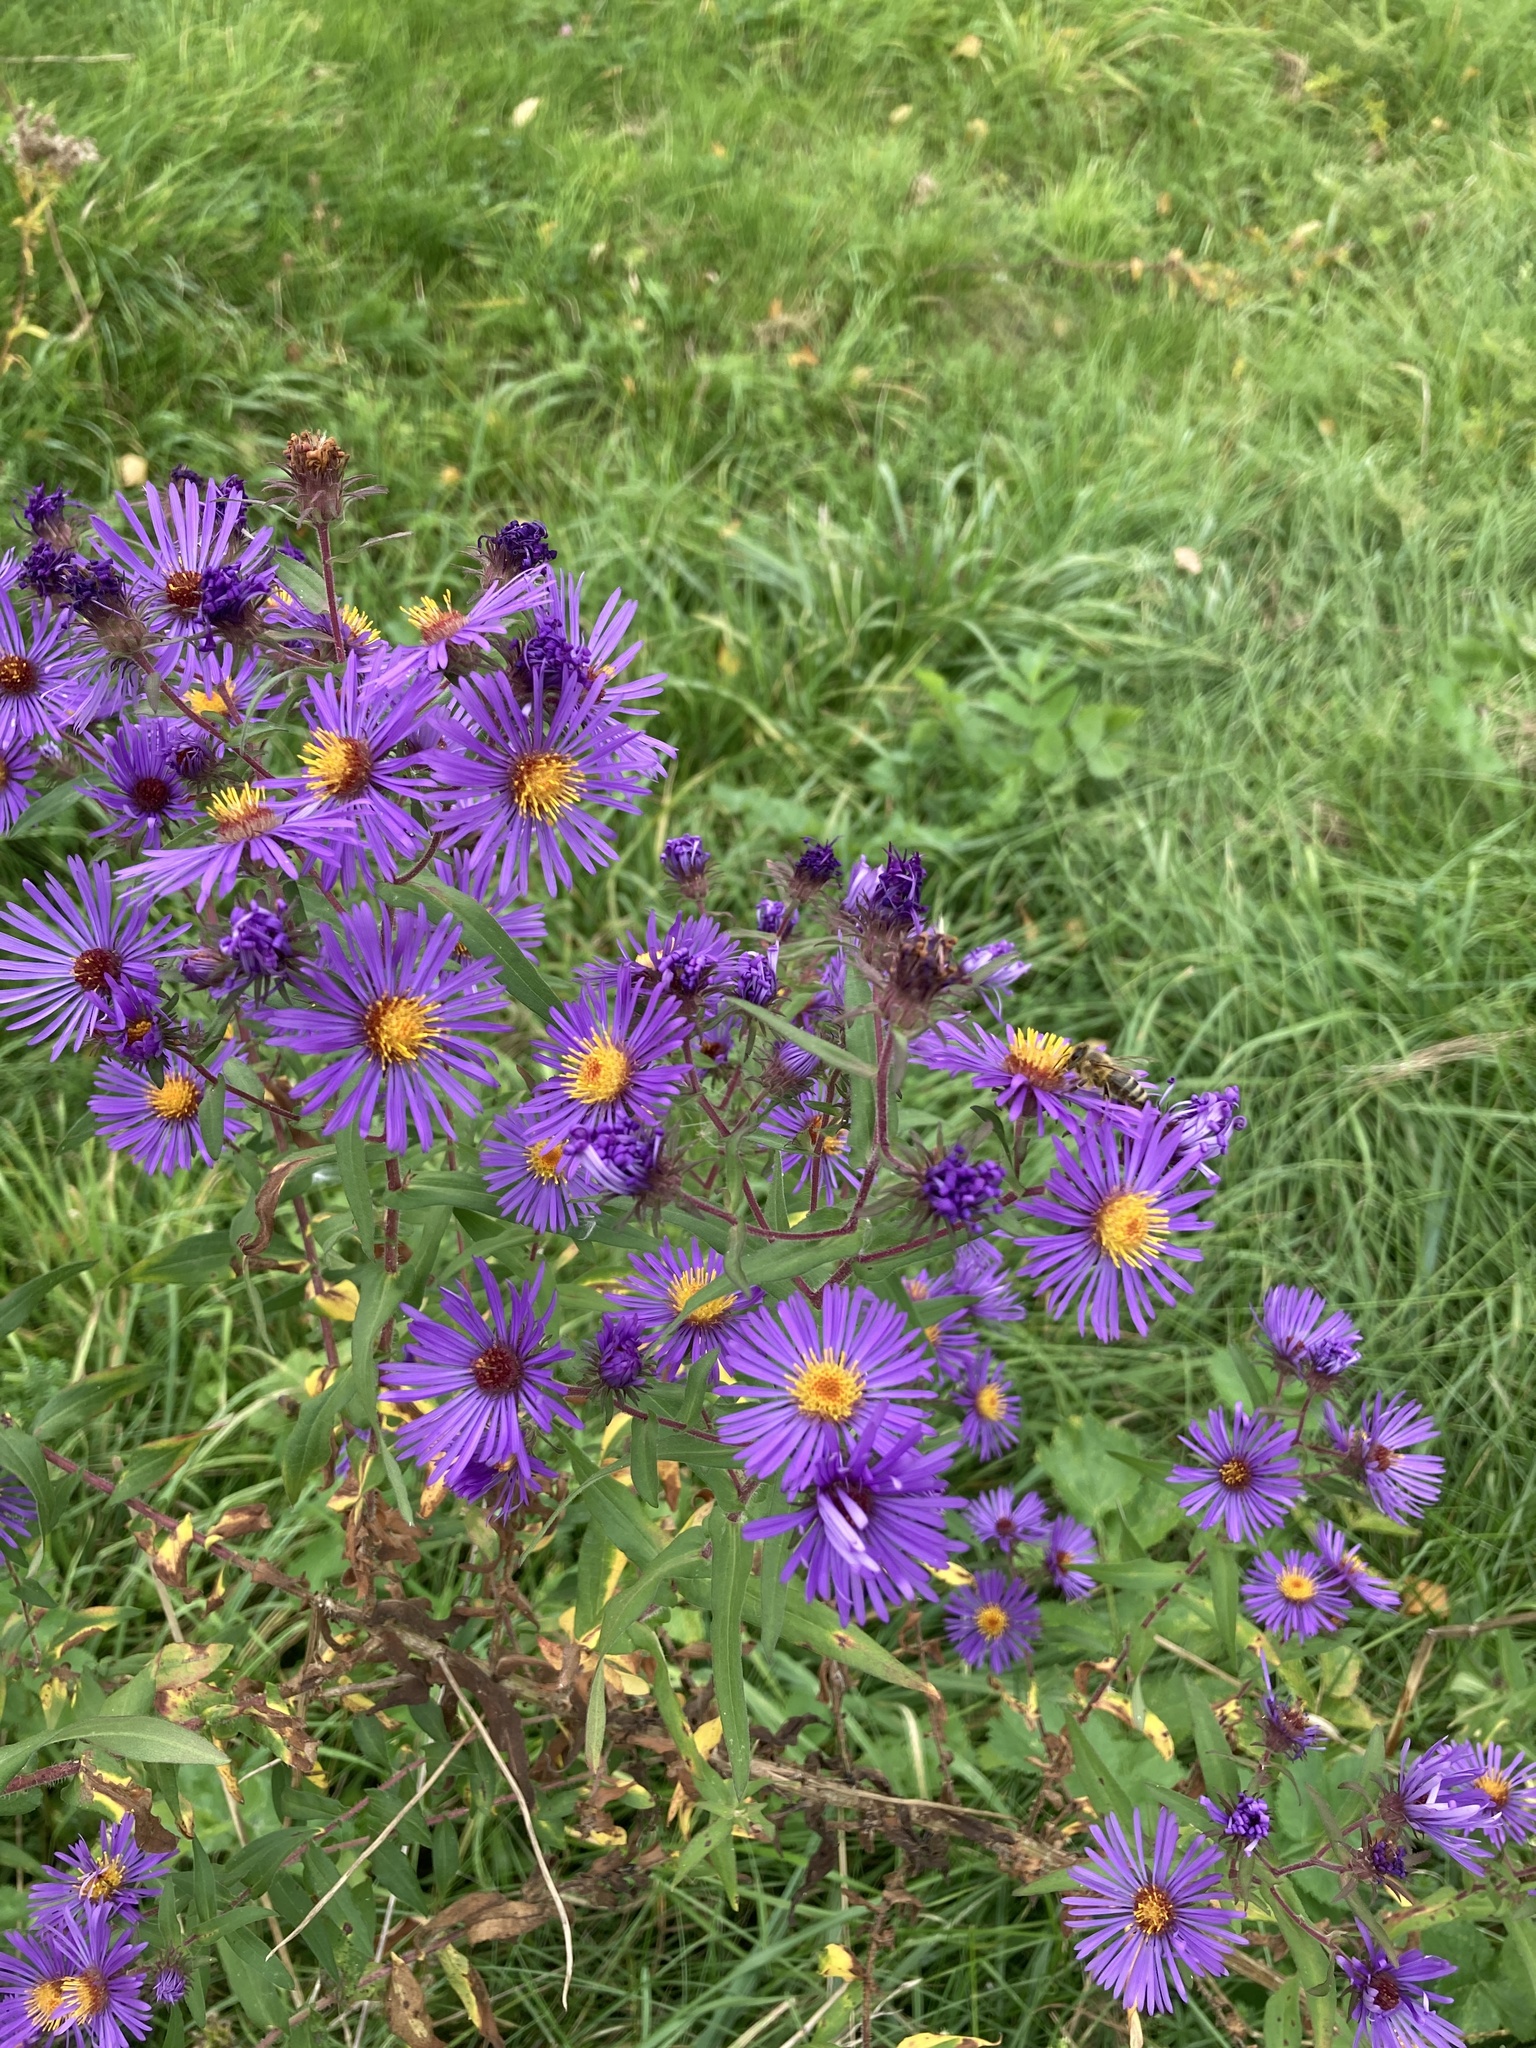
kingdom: Plantae
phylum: Tracheophyta
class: Magnoliopsida
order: Asterales
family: Asteraceae
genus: Symphyotrichum
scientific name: Symphyotrichum novae-angliae
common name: Michaelmas daisy
